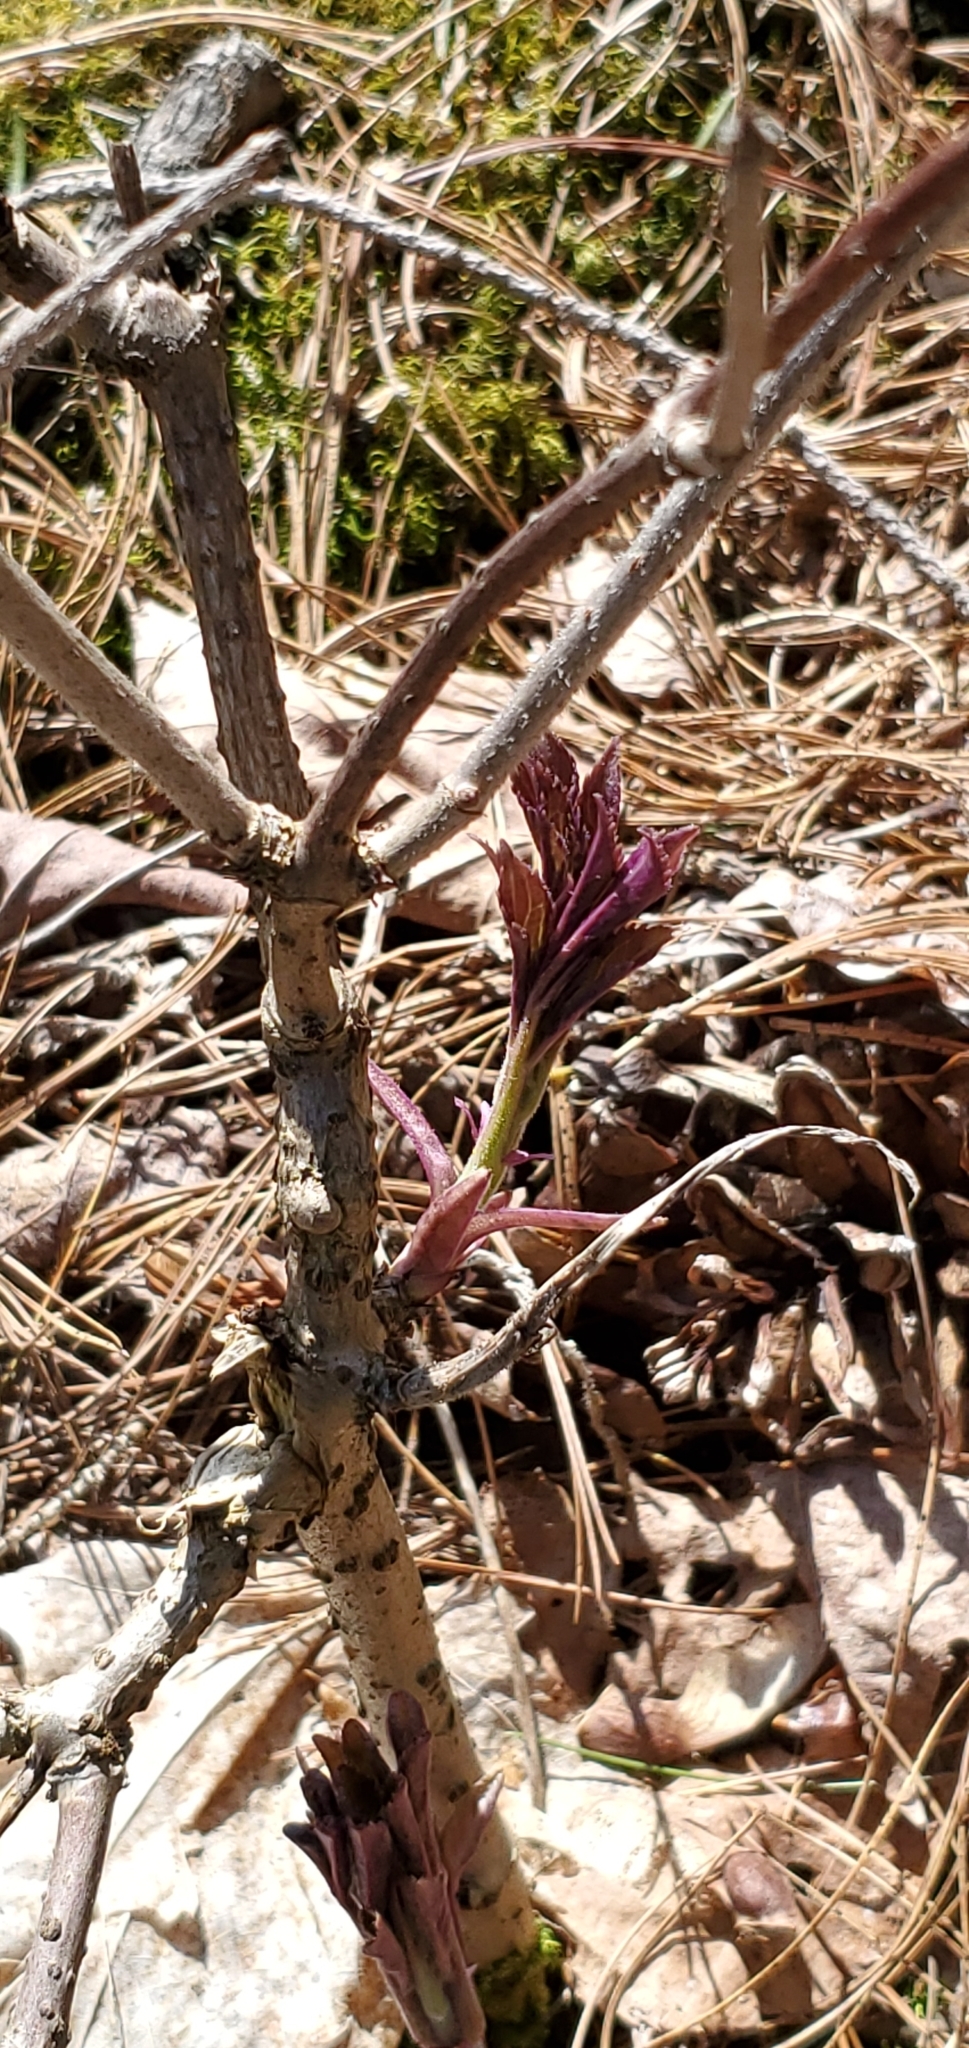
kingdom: Plantae
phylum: Tracheophyta
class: Magnoliopsida
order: Dipsacales
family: Viburnaceae
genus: Sambucus
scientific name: Sambucus
